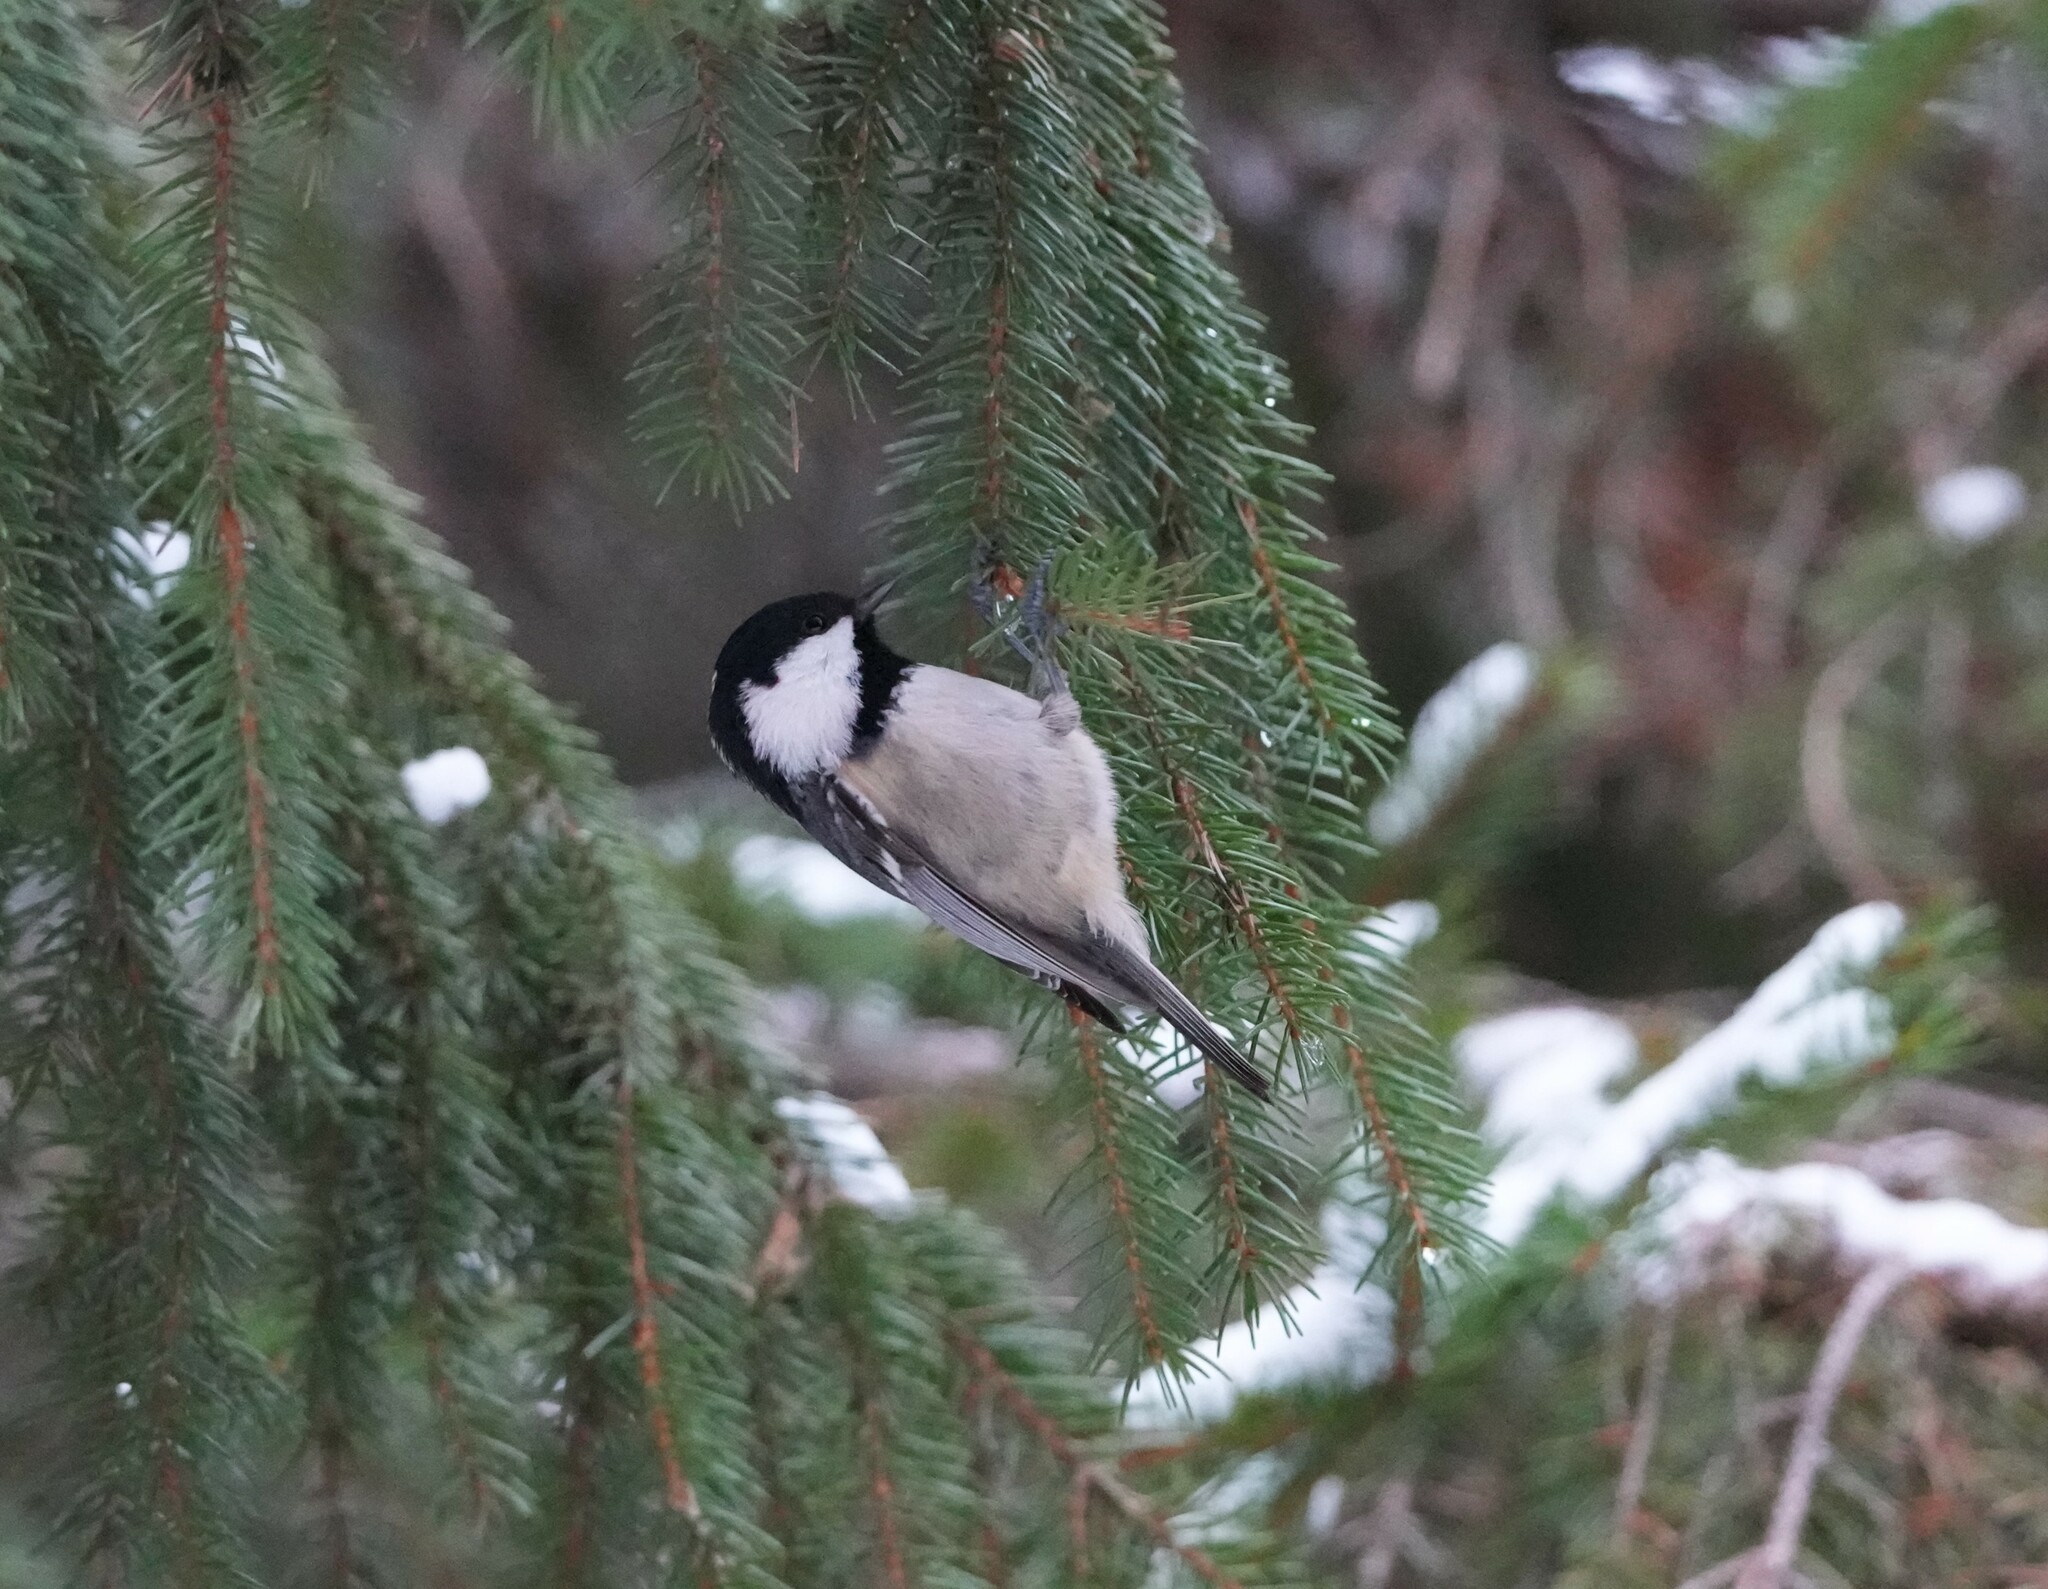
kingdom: Animalia
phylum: Chordata
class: Aves
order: Passeriformes
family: Paridae
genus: Periparus
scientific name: Periparus ater
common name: Coal tit
